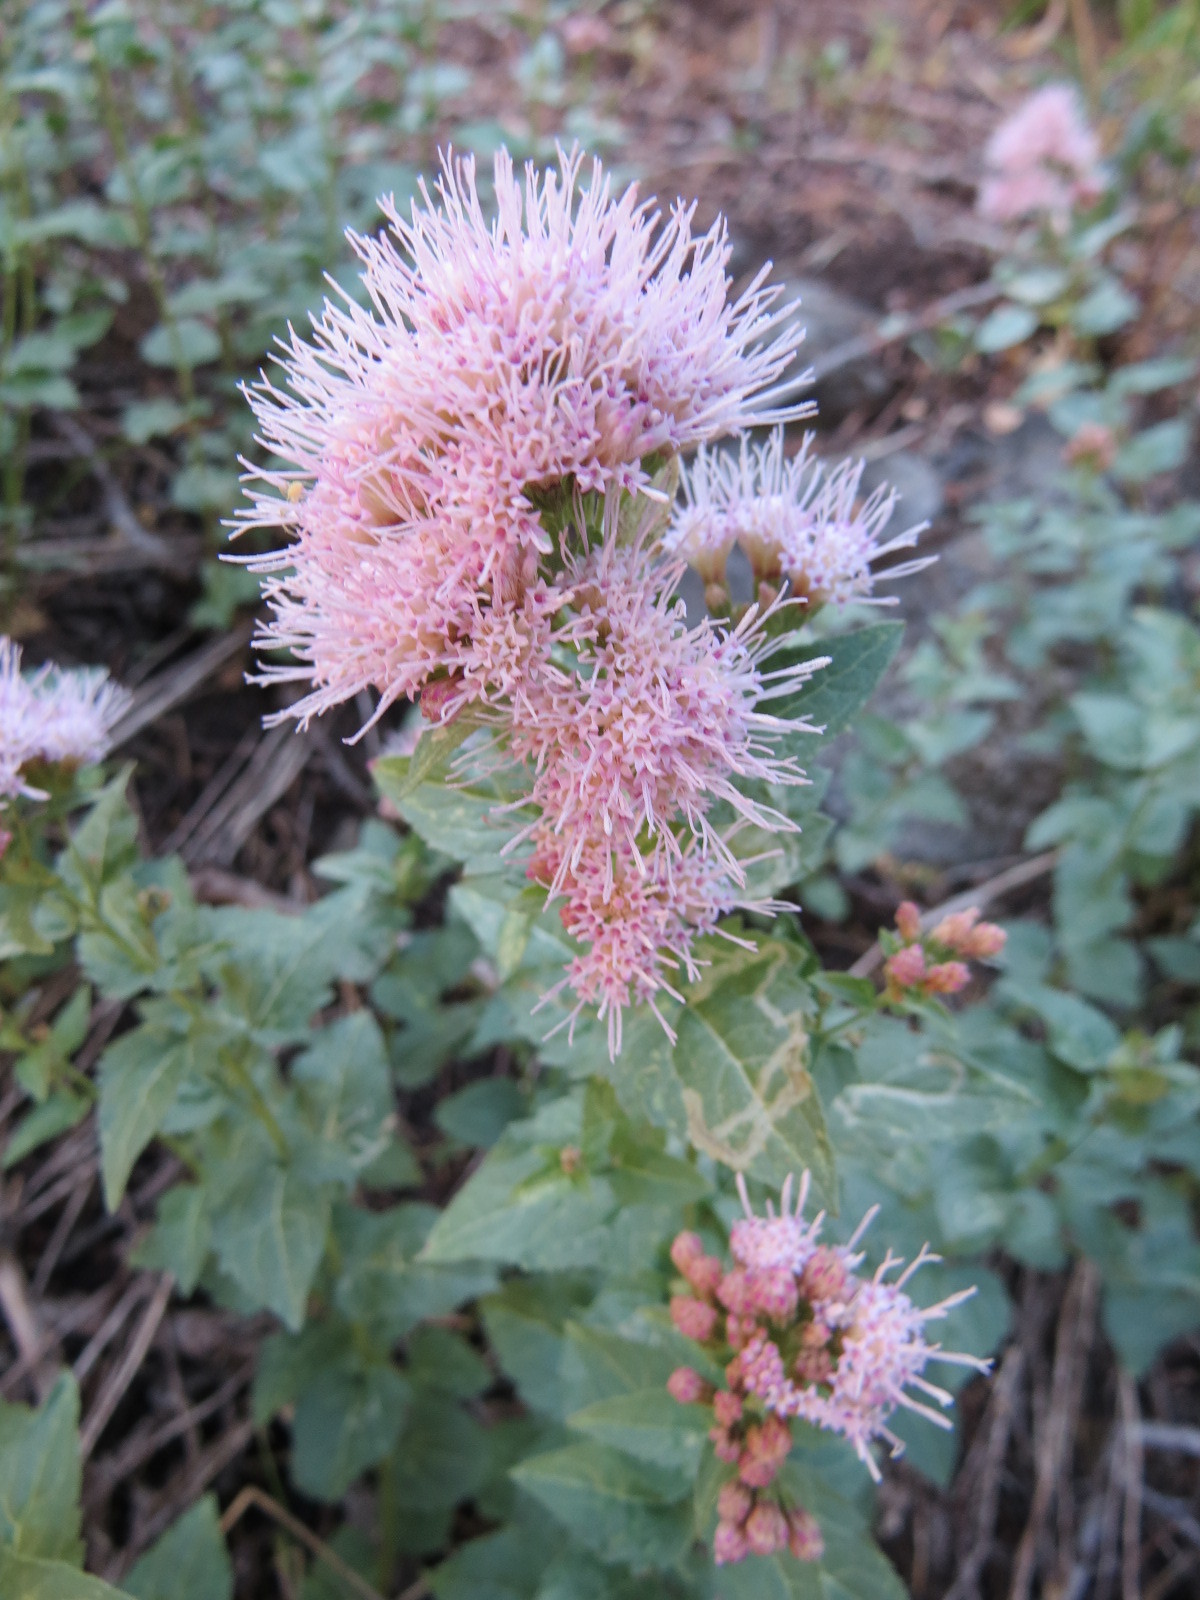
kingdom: Plantae
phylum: Tracheophyta
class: Magnoliopsida
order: Asterales
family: Asteraceae
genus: Ageratina
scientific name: Ageratina occidentalis
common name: Western snakeroot
